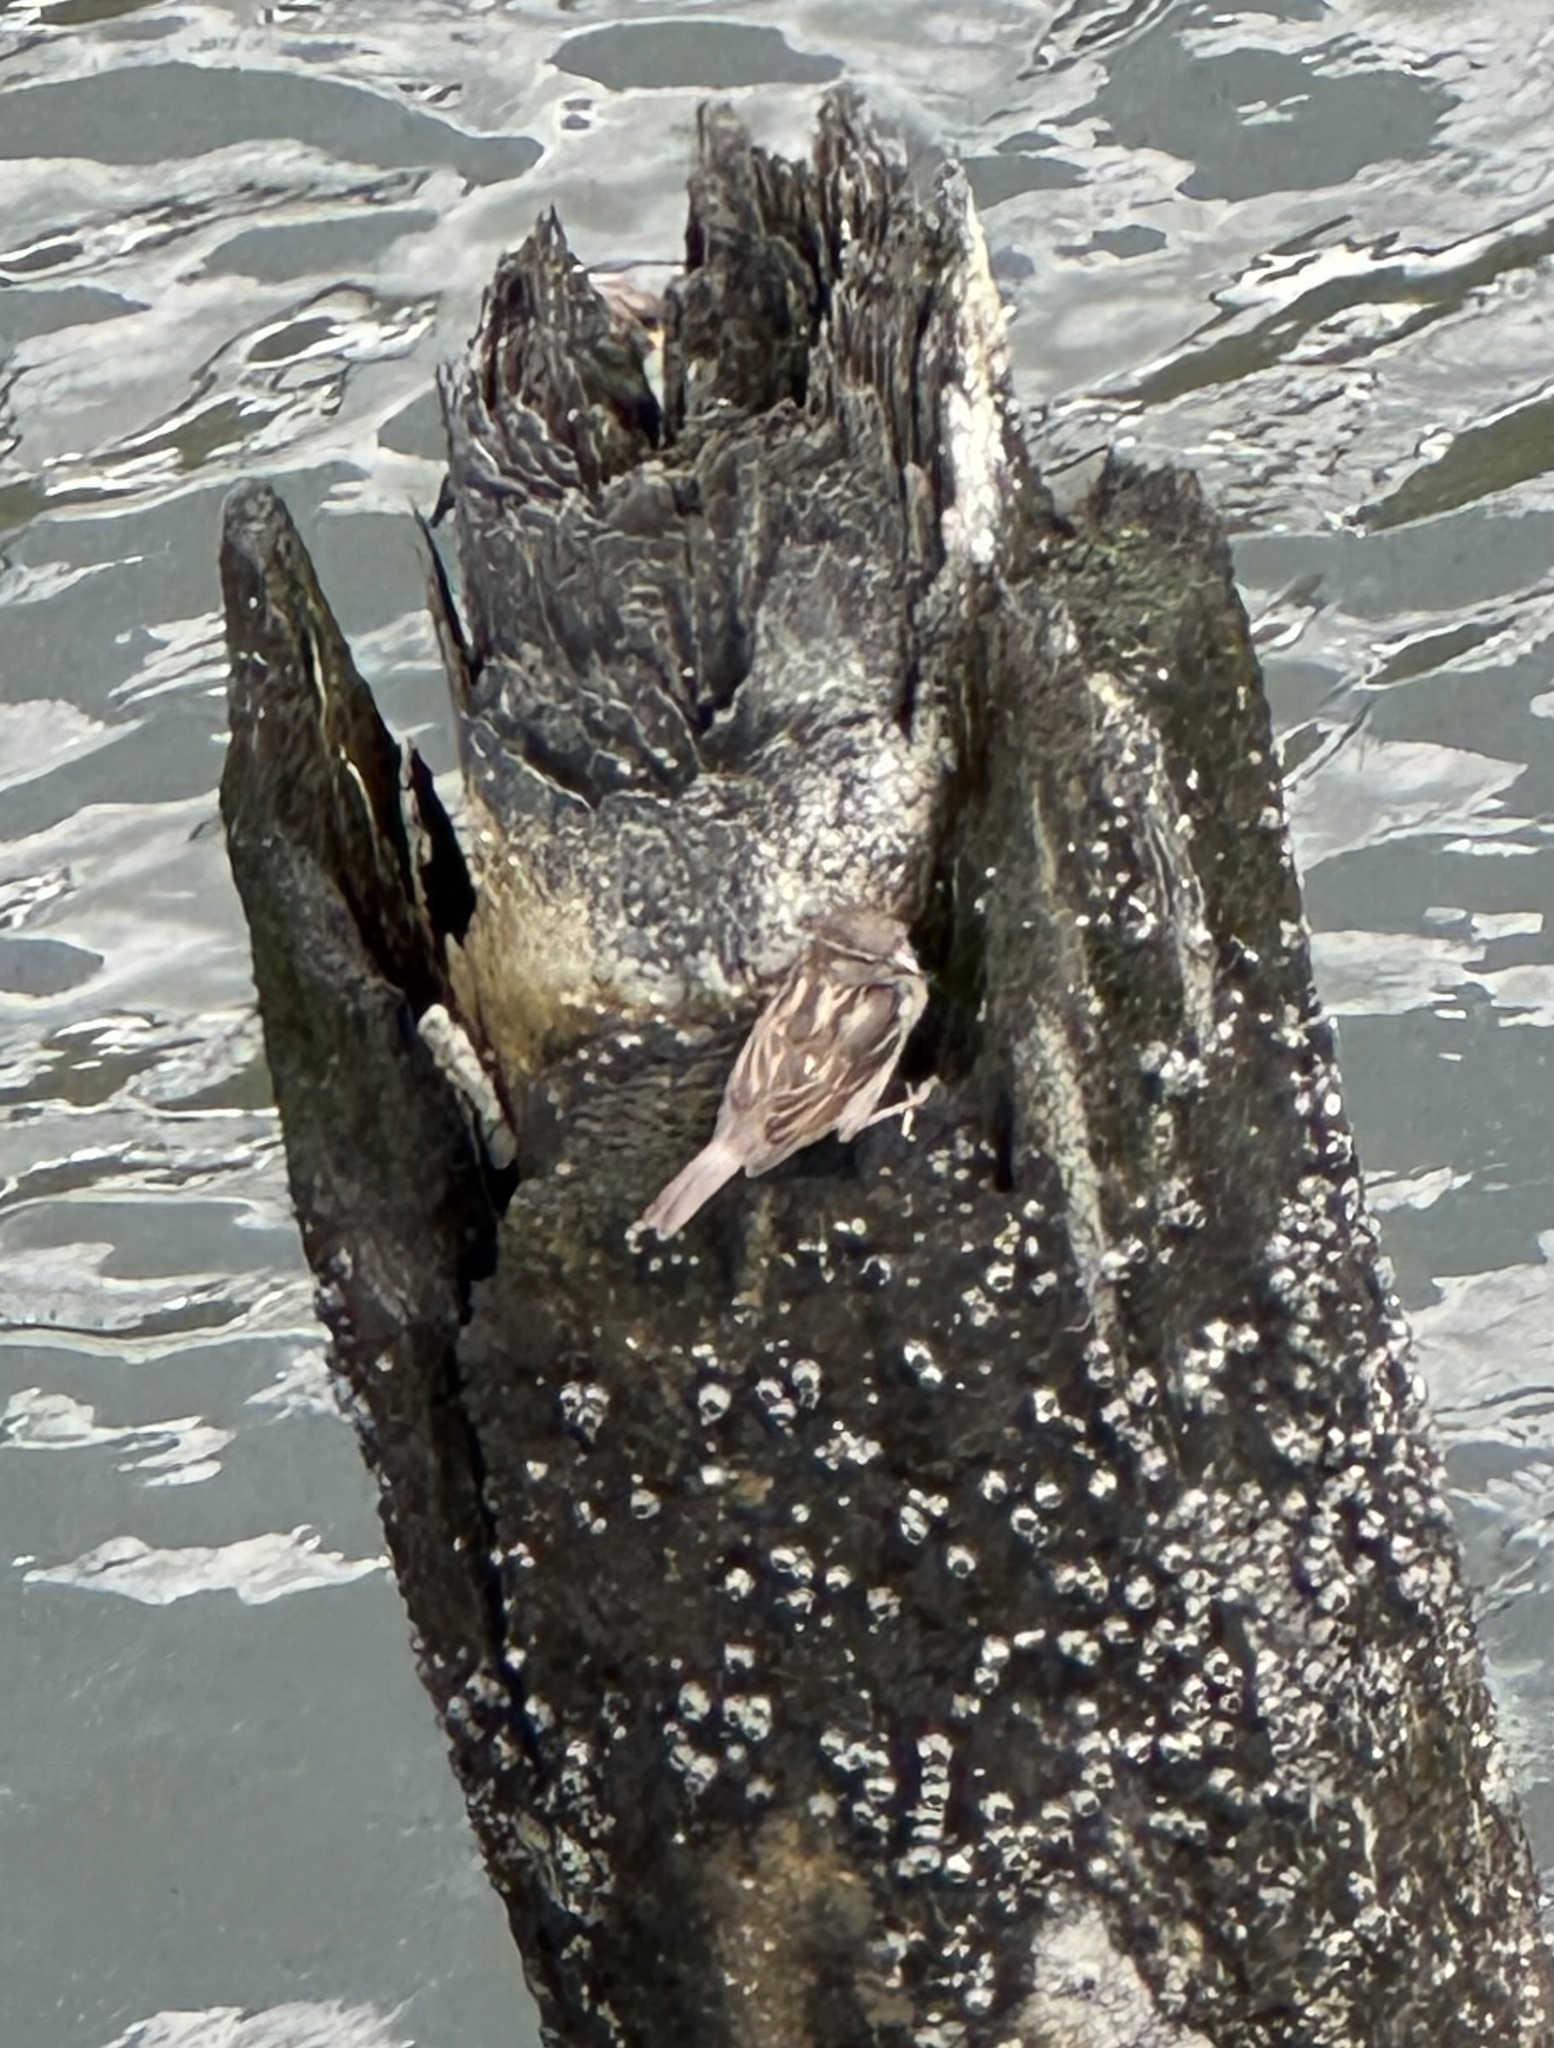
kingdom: Animalia
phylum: Chordata
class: Aves
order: Passeriformes
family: Passeridae
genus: Passer
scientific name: Passer domesticus
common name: House sparrow
